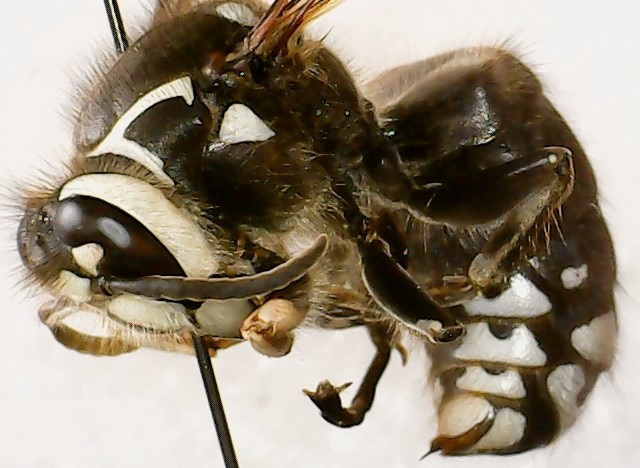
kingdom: Animalia
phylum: Arthropoda
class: Insecta
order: Hymenoptera
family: Vespidae
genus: Dolichovespula
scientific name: Dolichovespula maculata
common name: Bald-faced hornet
